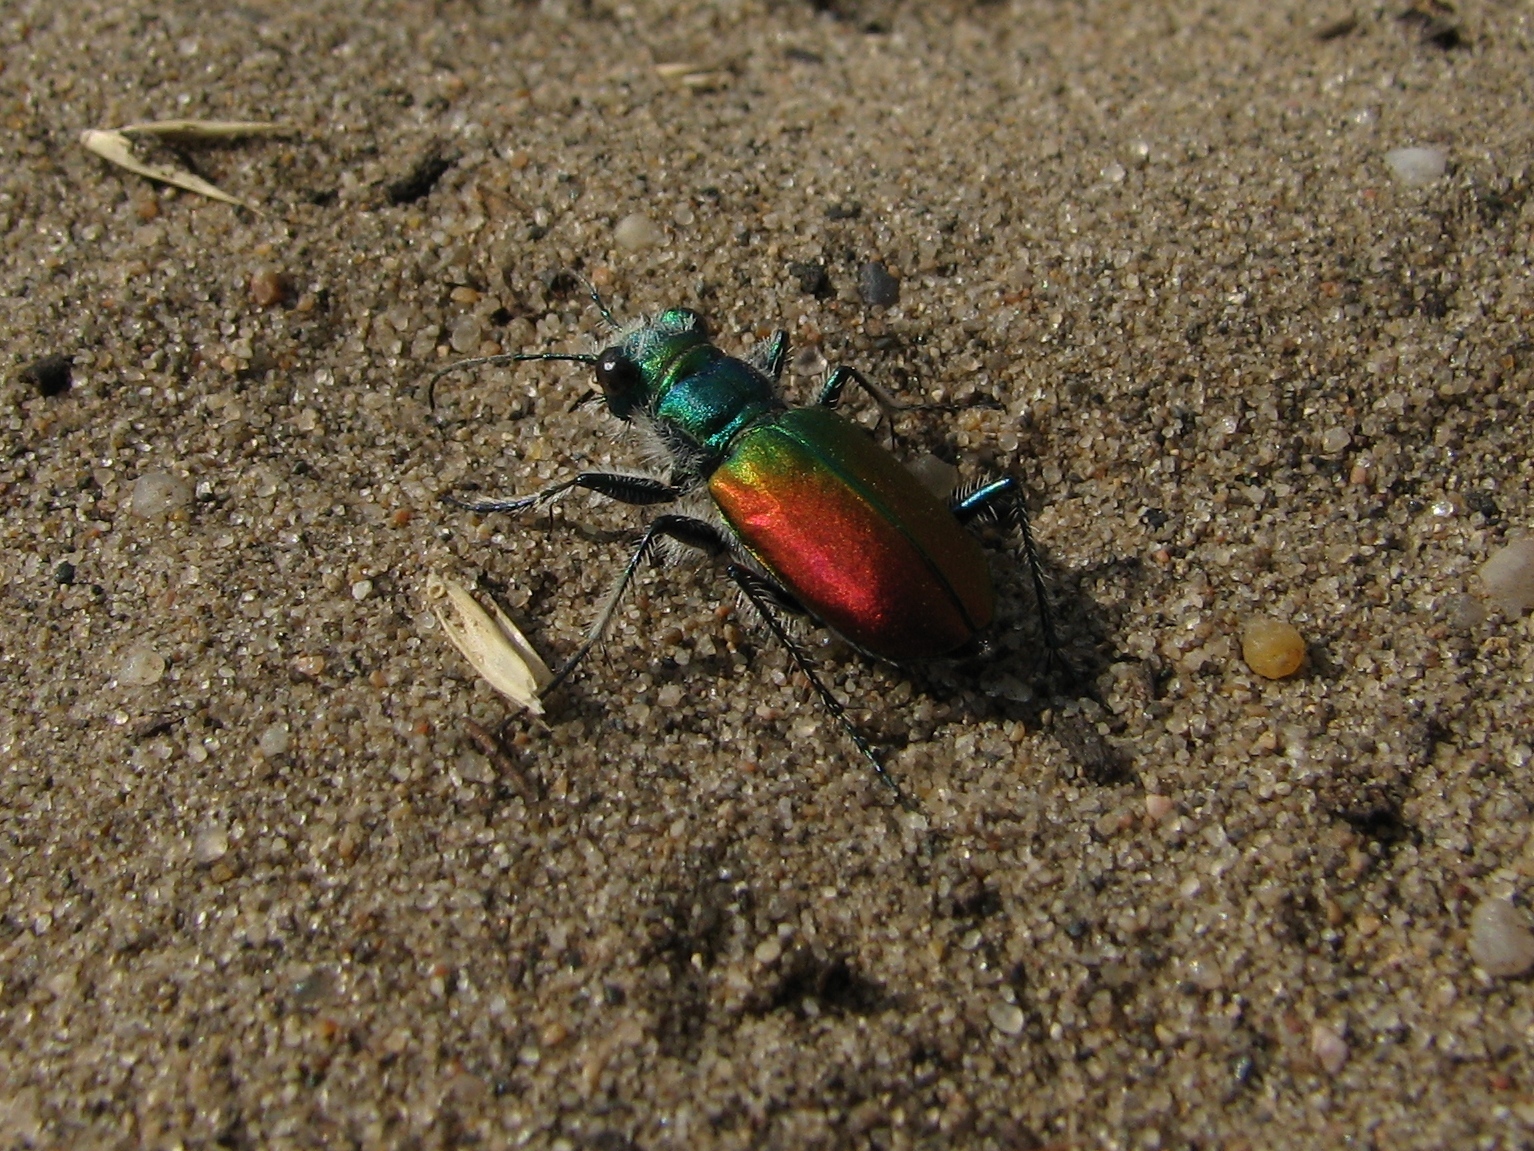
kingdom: Animalia
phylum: Arthropoda
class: Insecta
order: Coleoptera
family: Carabidae
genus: Cicindela
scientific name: Cicindela scutellaris
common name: Festive tiger beetle
